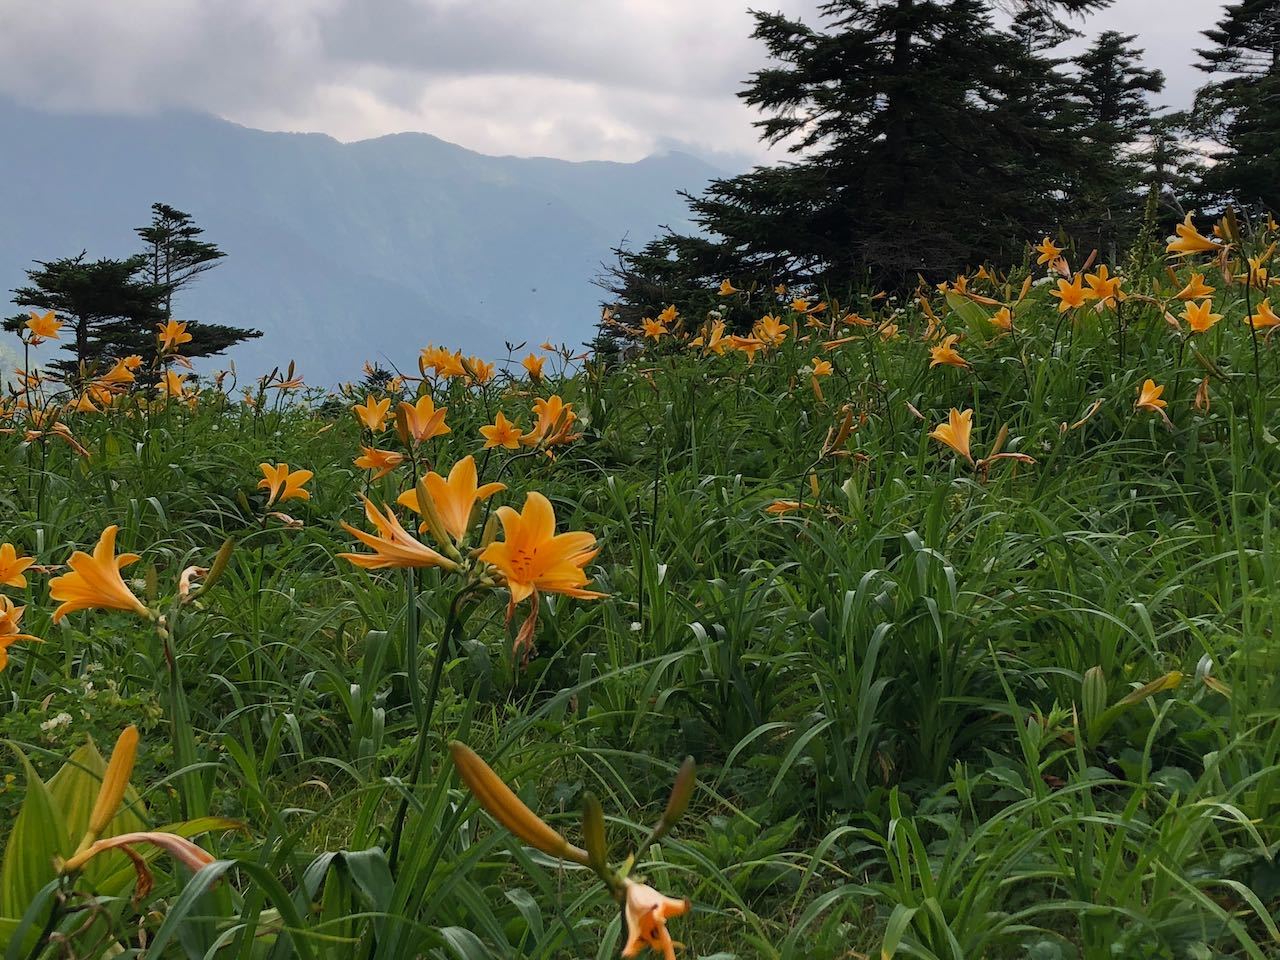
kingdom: Plantae
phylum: Tracheophyta
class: Liliopsida
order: Asparagales
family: Asphodelaceae
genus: Hemerocallis
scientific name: Hemerocallis middendorffii
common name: Amur day-lily
